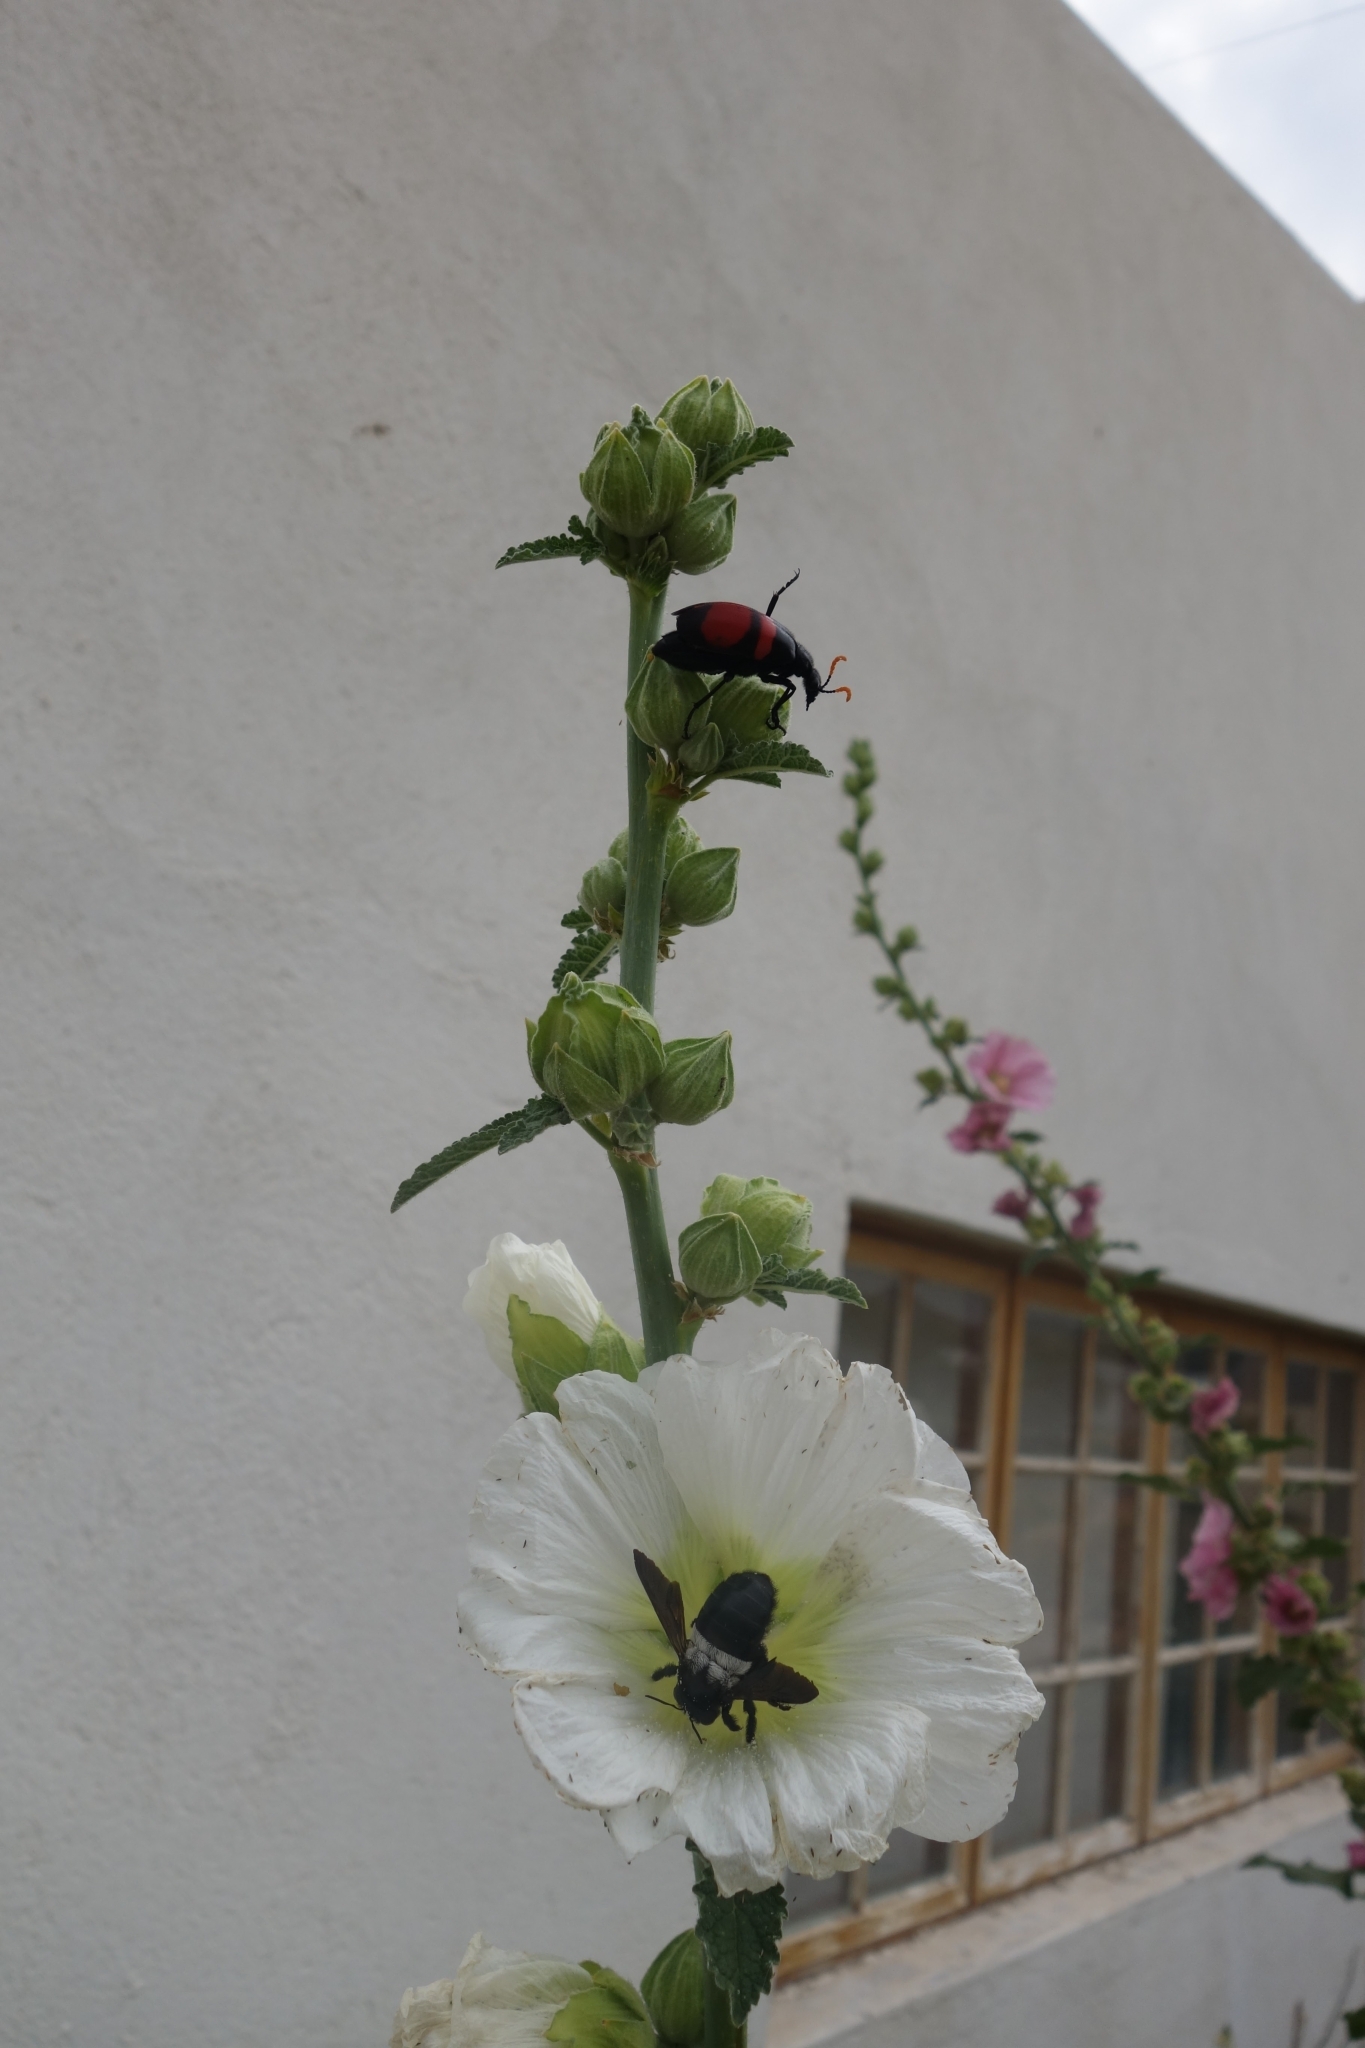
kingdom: Animalia
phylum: Arthropoda
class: Insecta
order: Coleoptera
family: Meloidae
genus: Hycleus
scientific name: Hycleus haemactus
